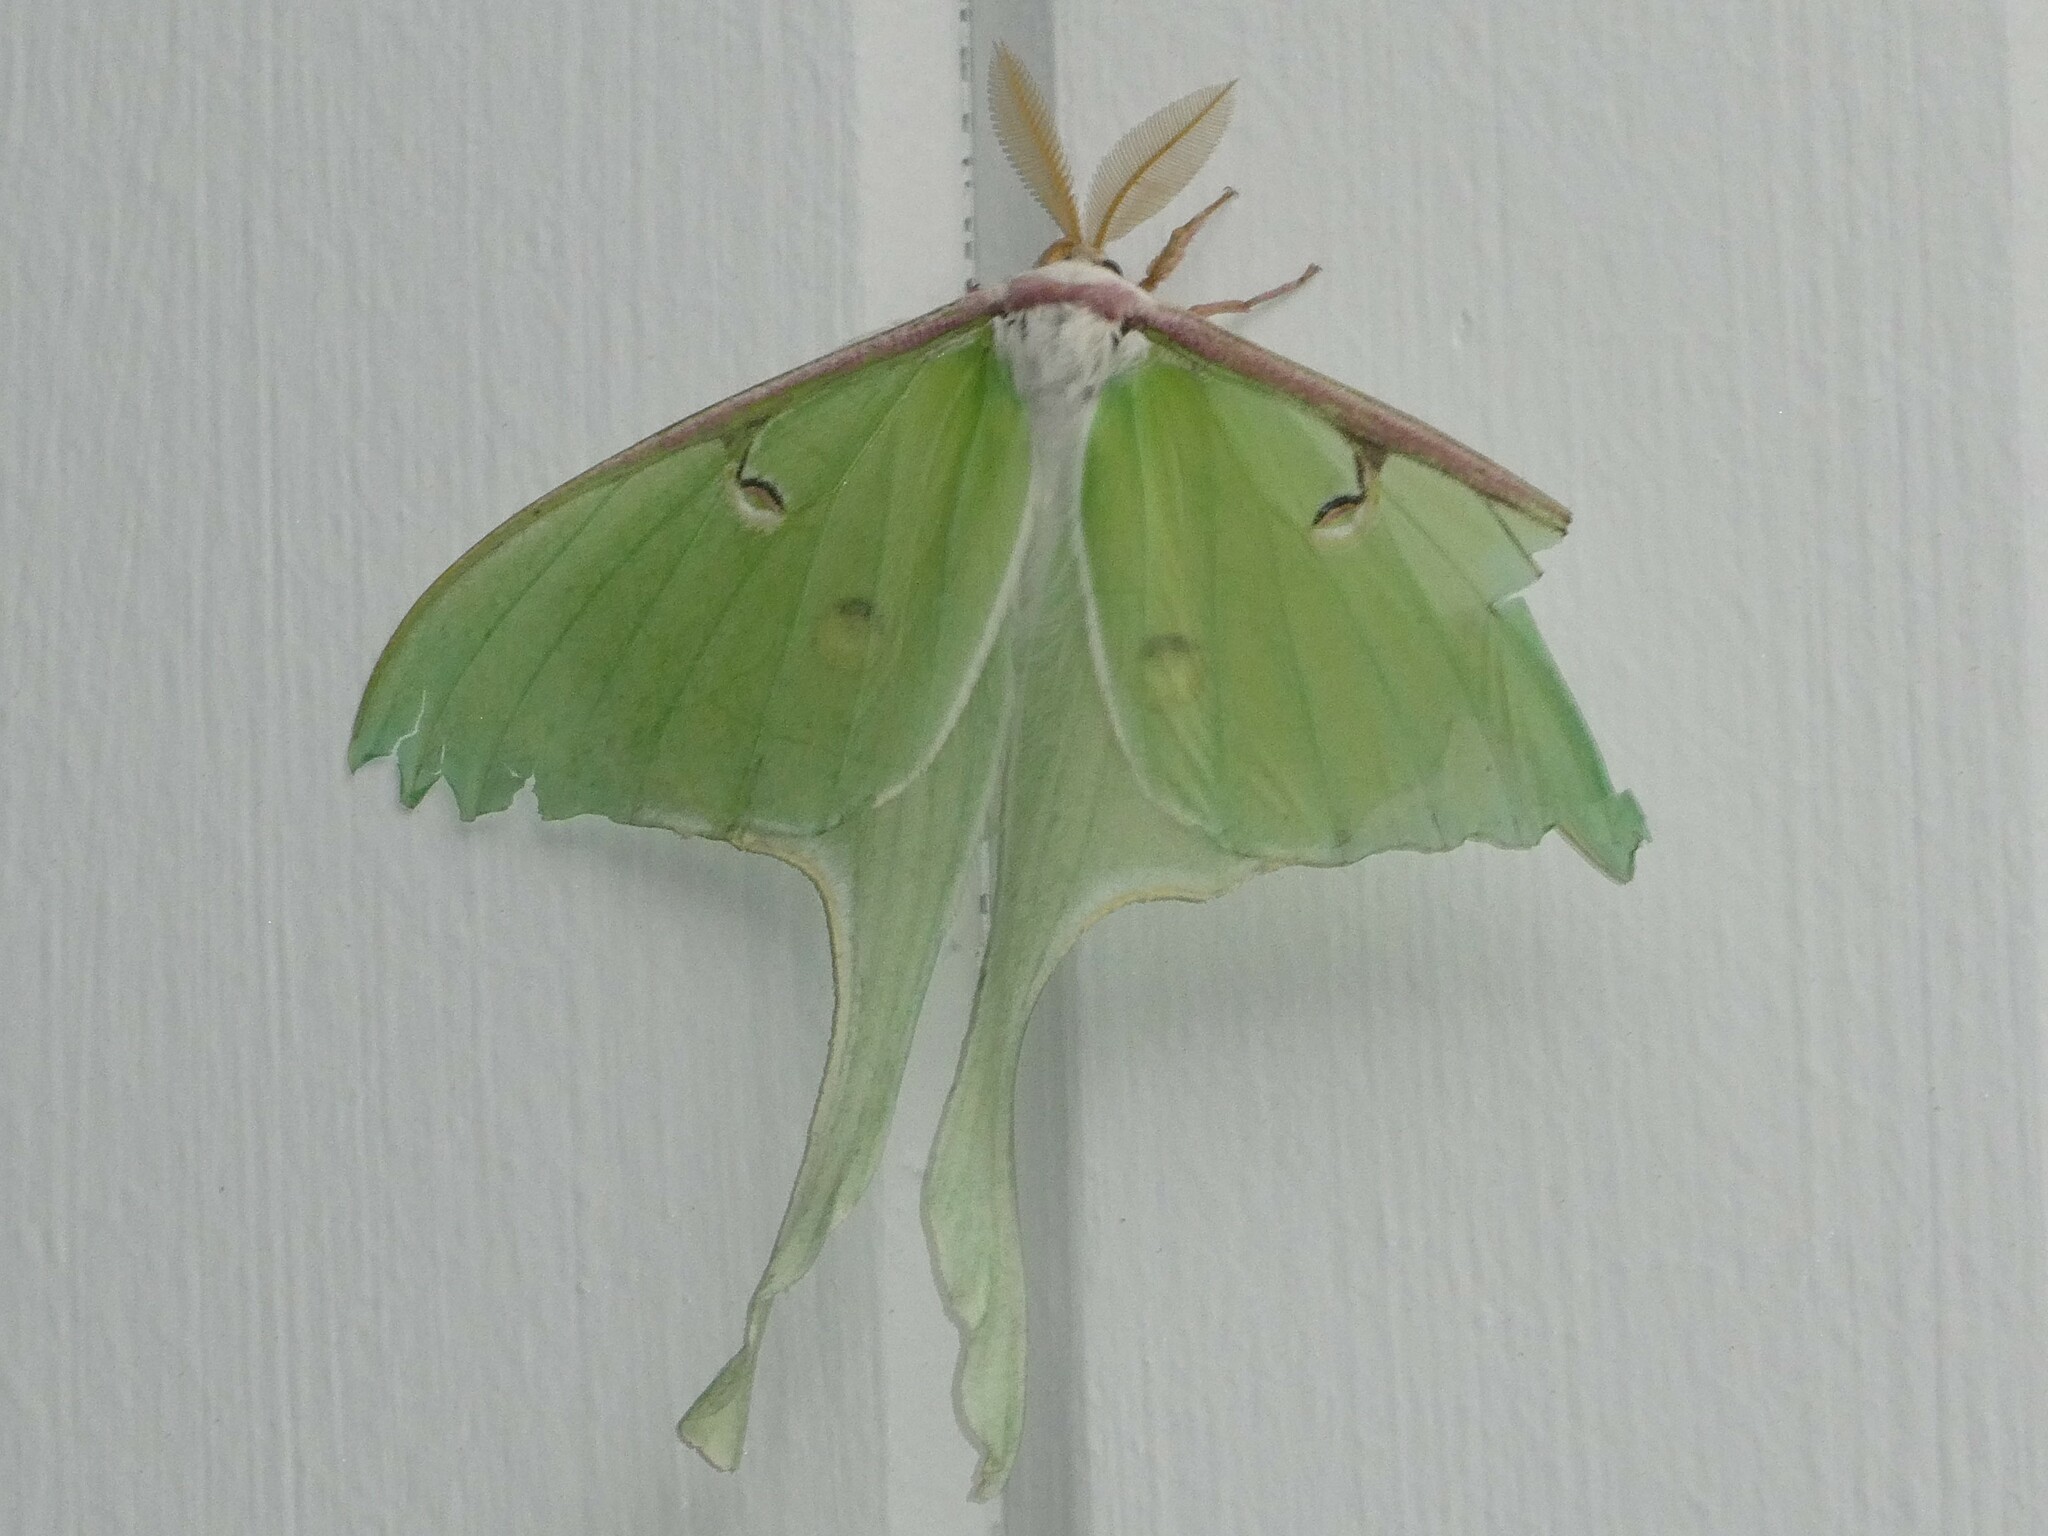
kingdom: Animalia
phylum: Arthropoda
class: Insecta
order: Lepidoptera
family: Saturniidae
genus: Actias
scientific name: Actias luna
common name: Luna moth
